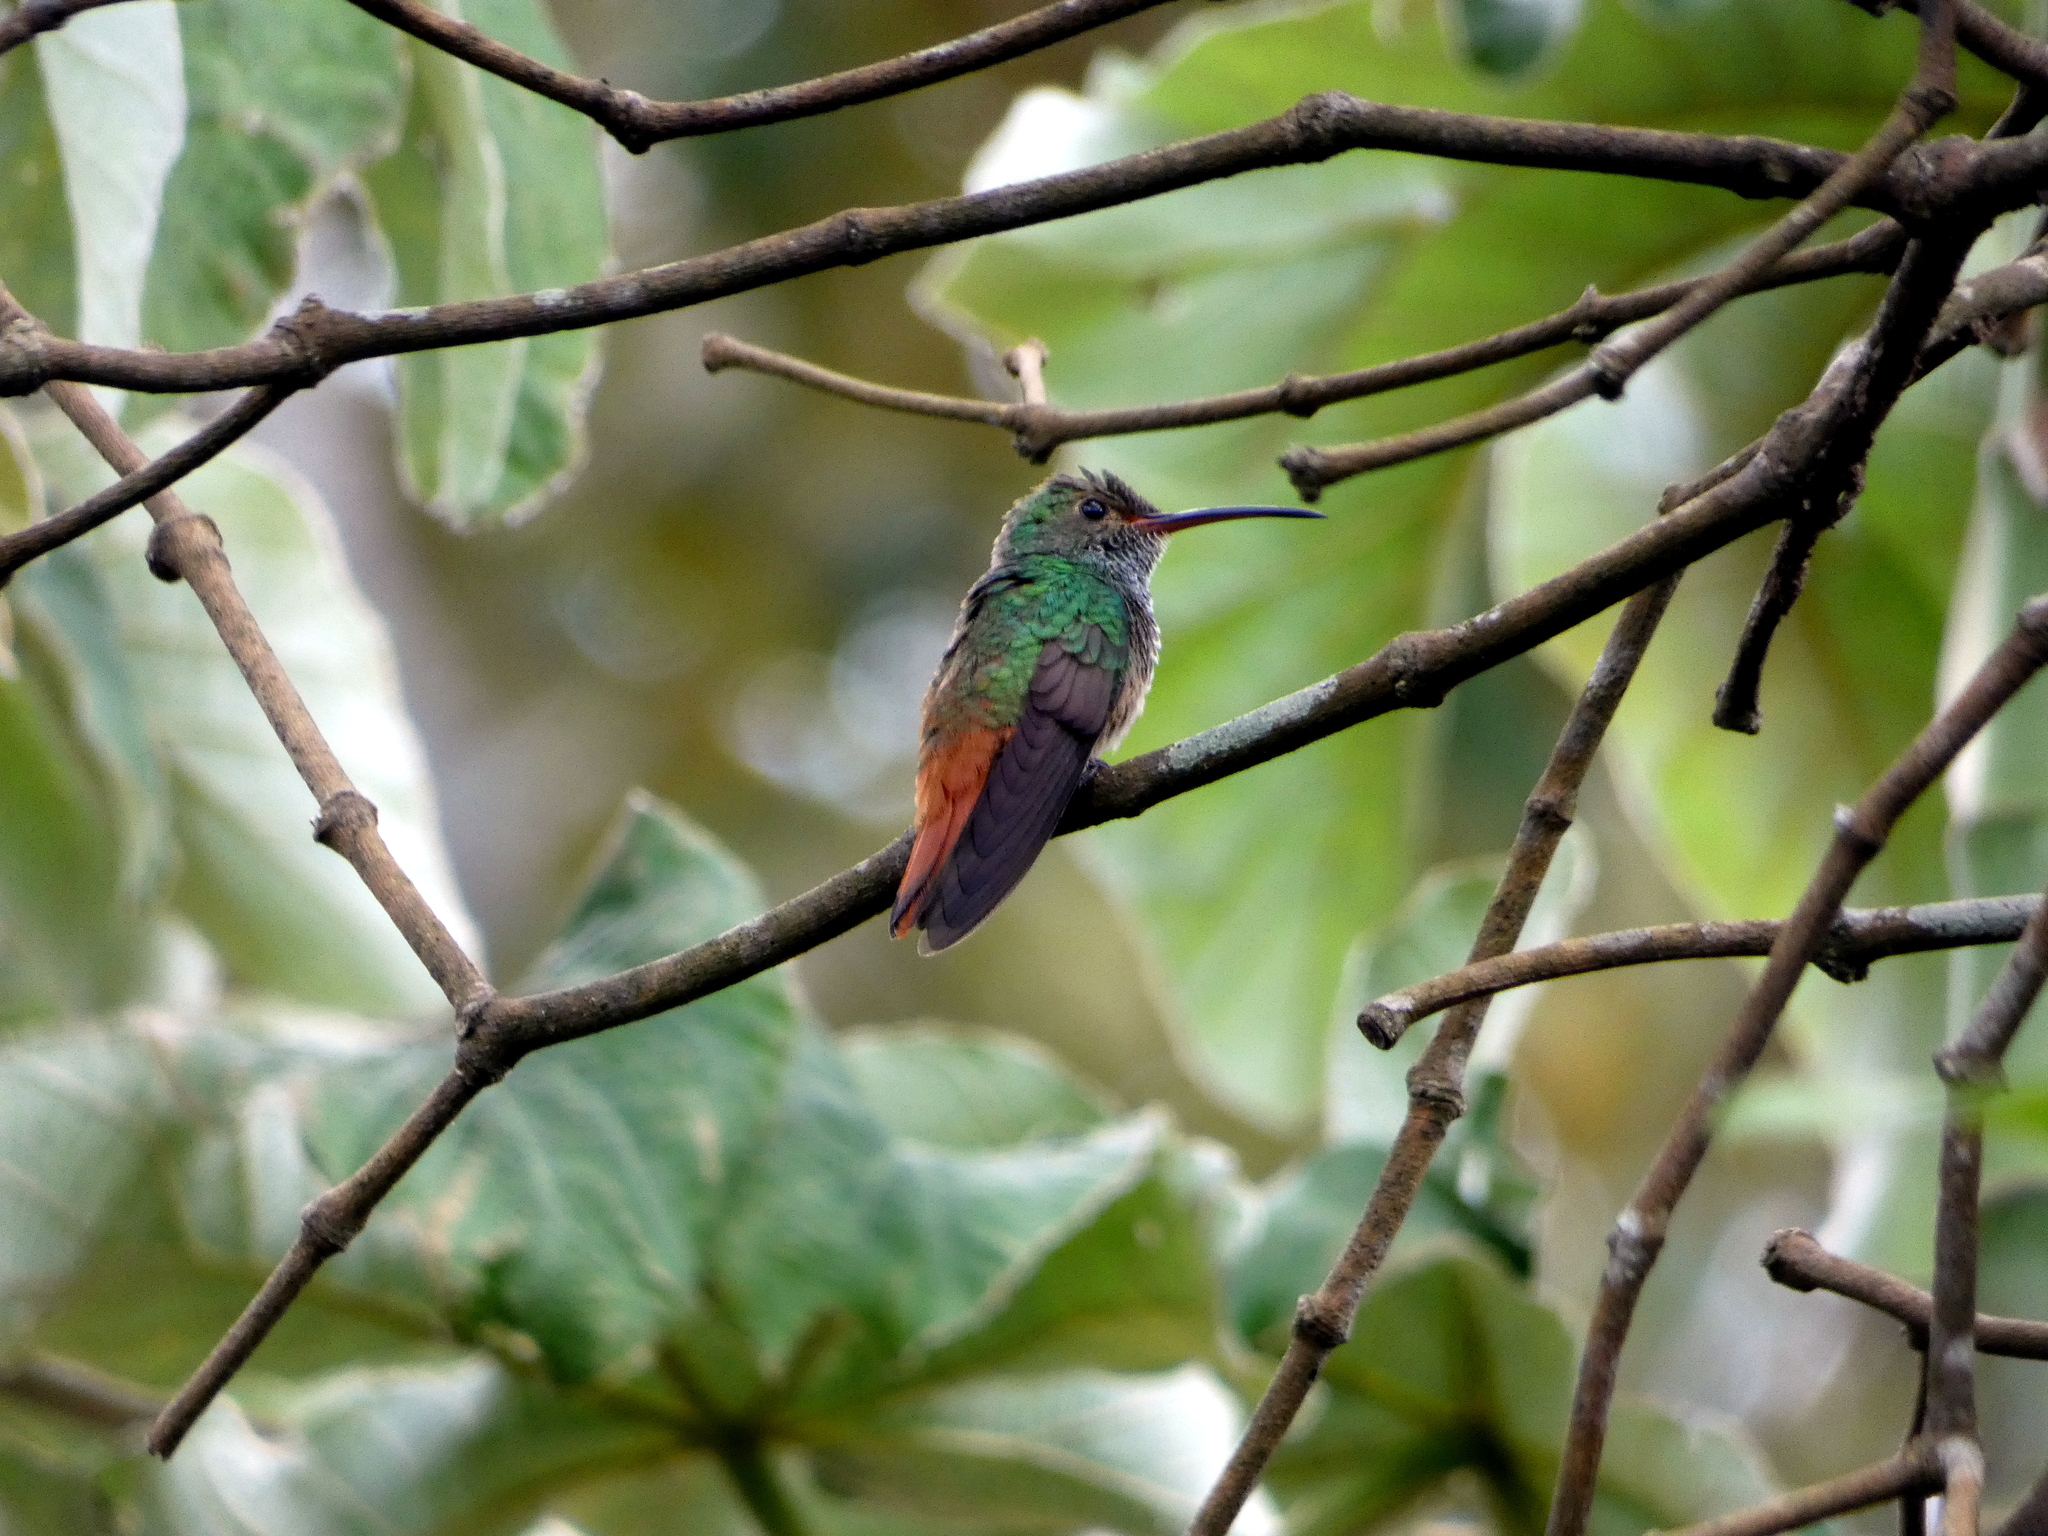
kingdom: Animalia
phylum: Chordata
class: Aves
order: Apodiformes
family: Trochilidae
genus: Amazilia
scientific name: Amazilia tzacatl
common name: Rufous-tailed hummingbird
